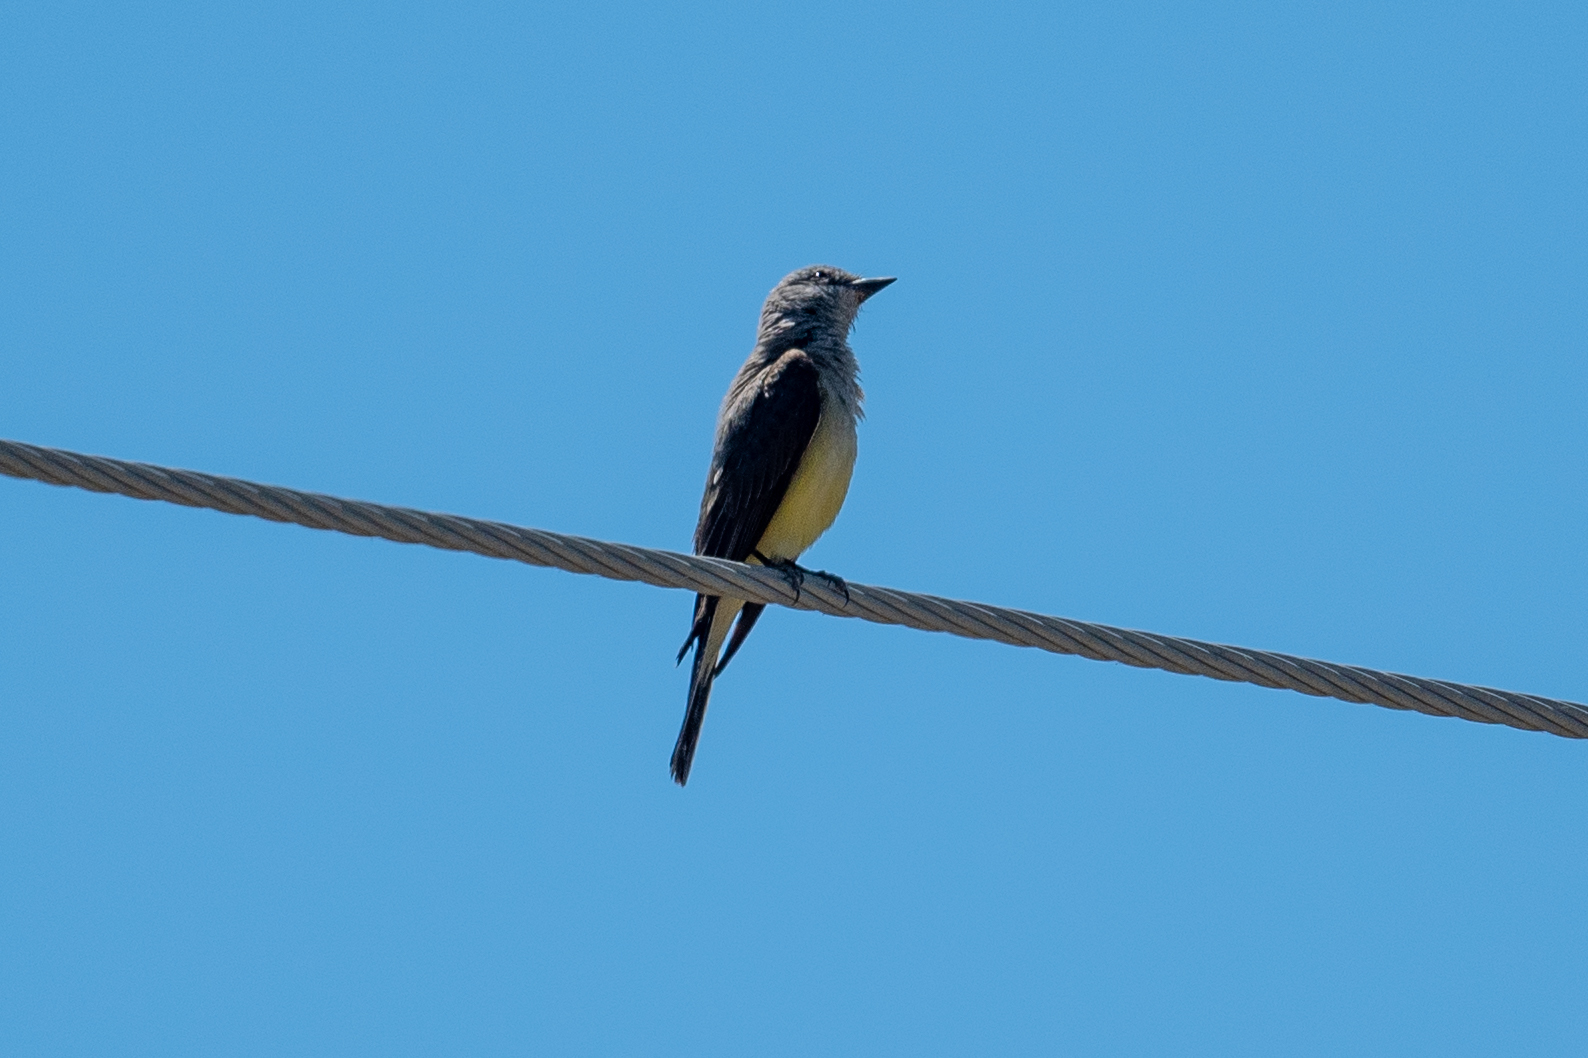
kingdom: Animalia
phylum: Chordata
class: Aves
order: Passeriformes
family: Tyrannidae
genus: Tyrannus
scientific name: Tyrannus verticalis
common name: Western kingbird
